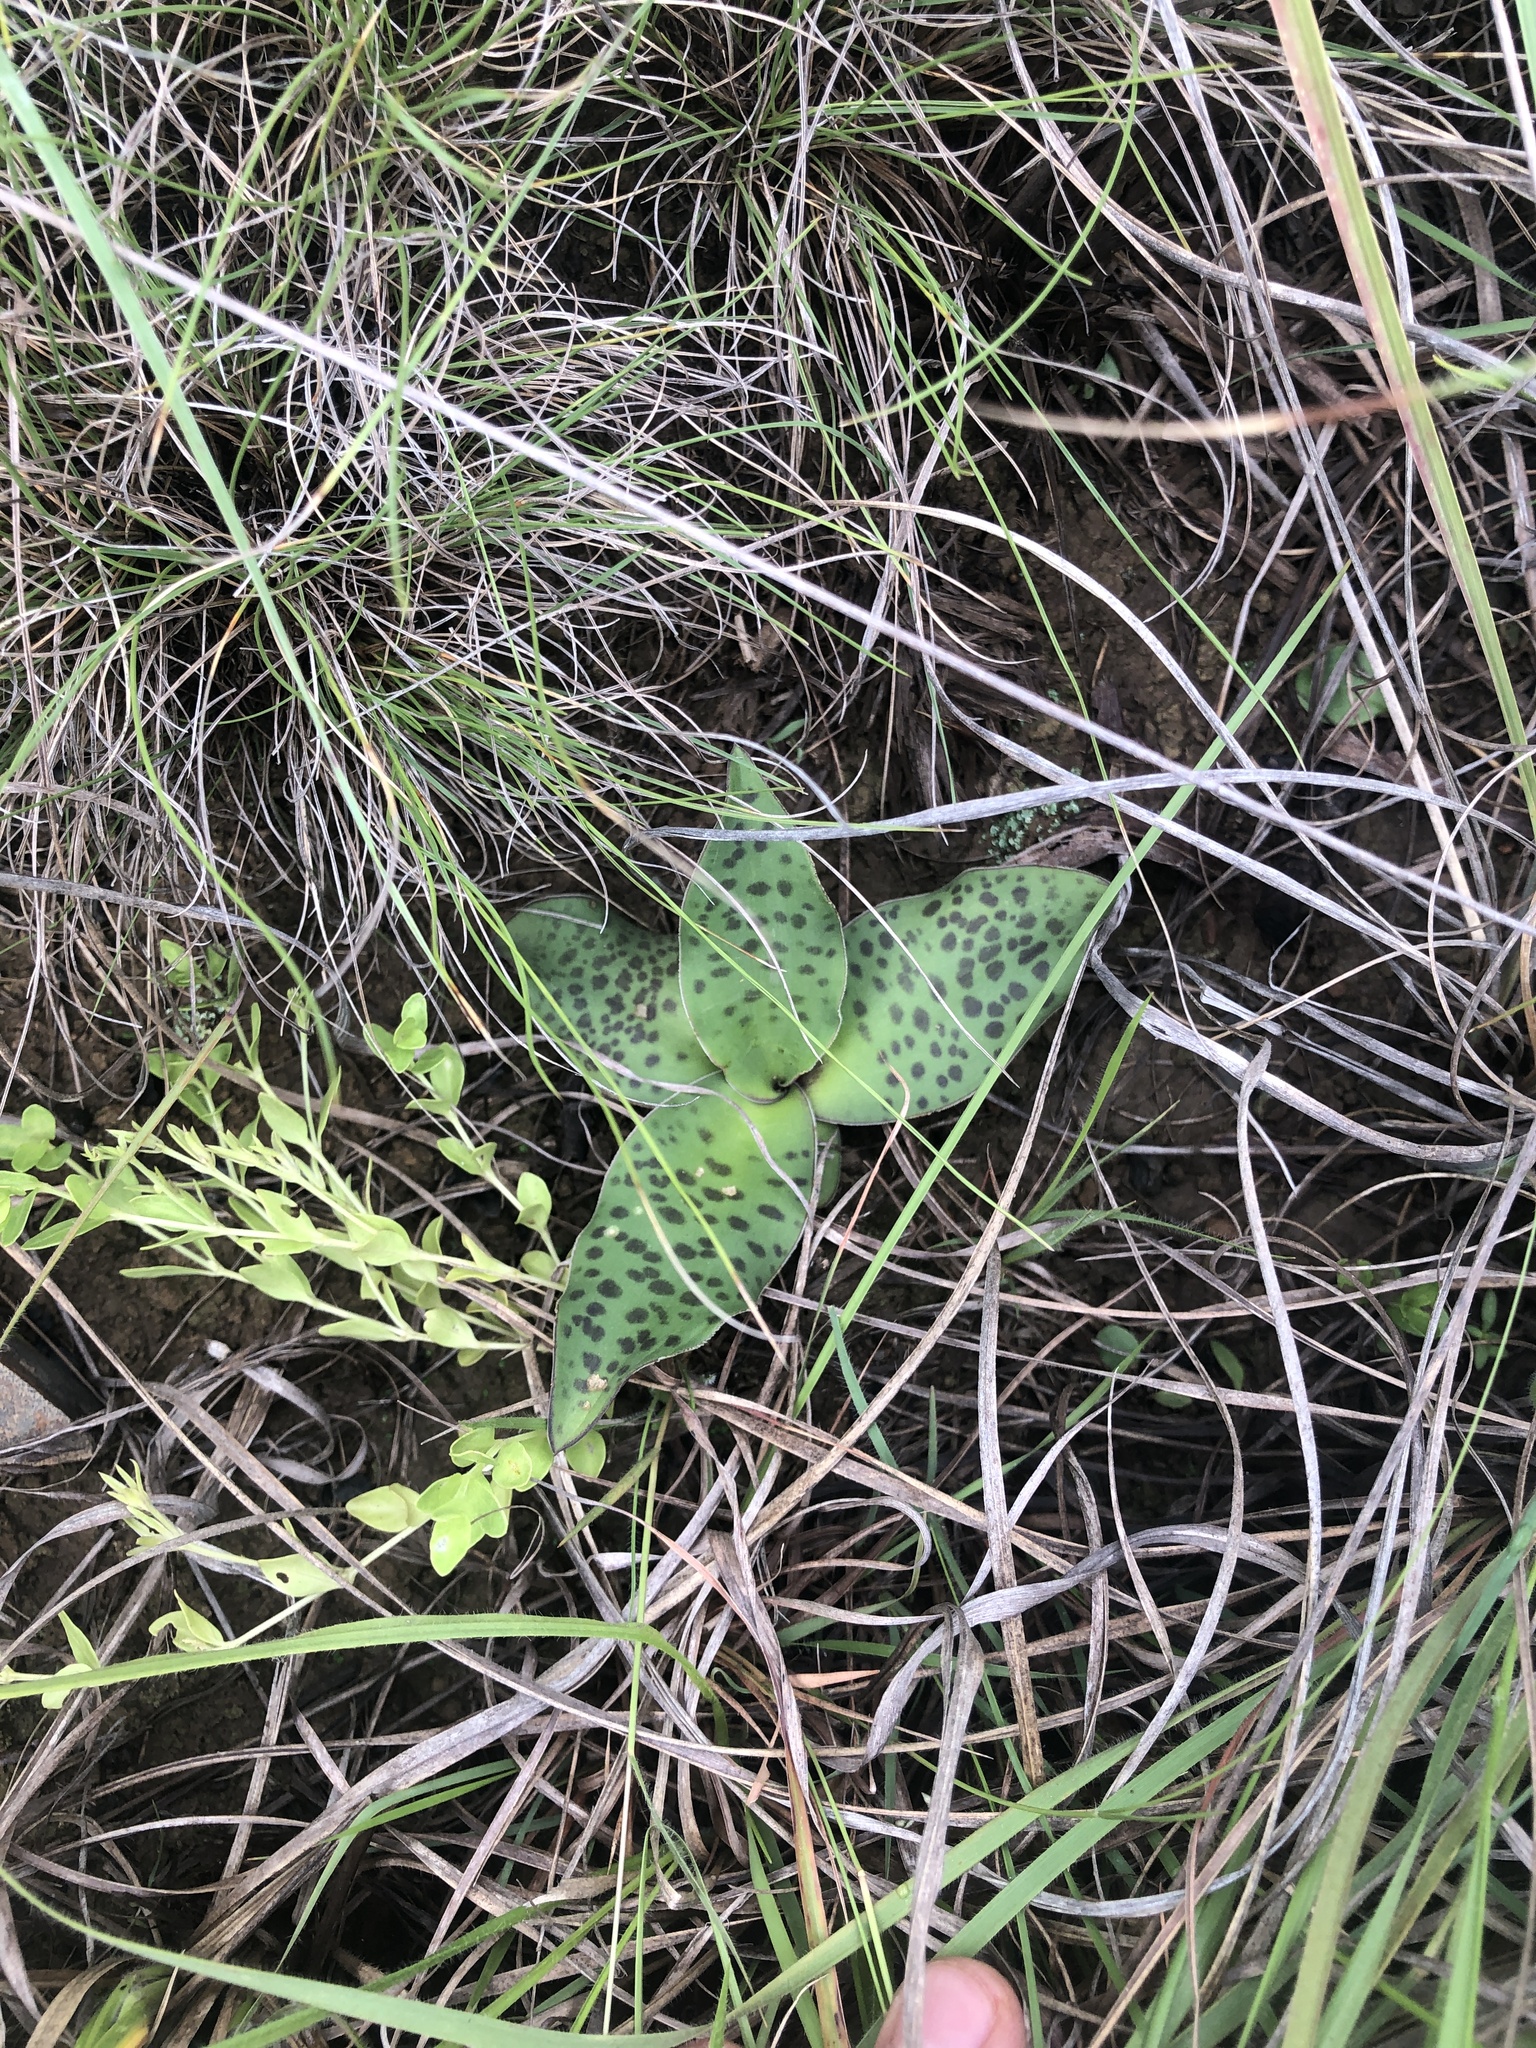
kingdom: Plantae
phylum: Tracheophyta
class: Liliopsida
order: Asparagales
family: Asparagaceae
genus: Ledebouria
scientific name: Ledebouria ovatifolia
